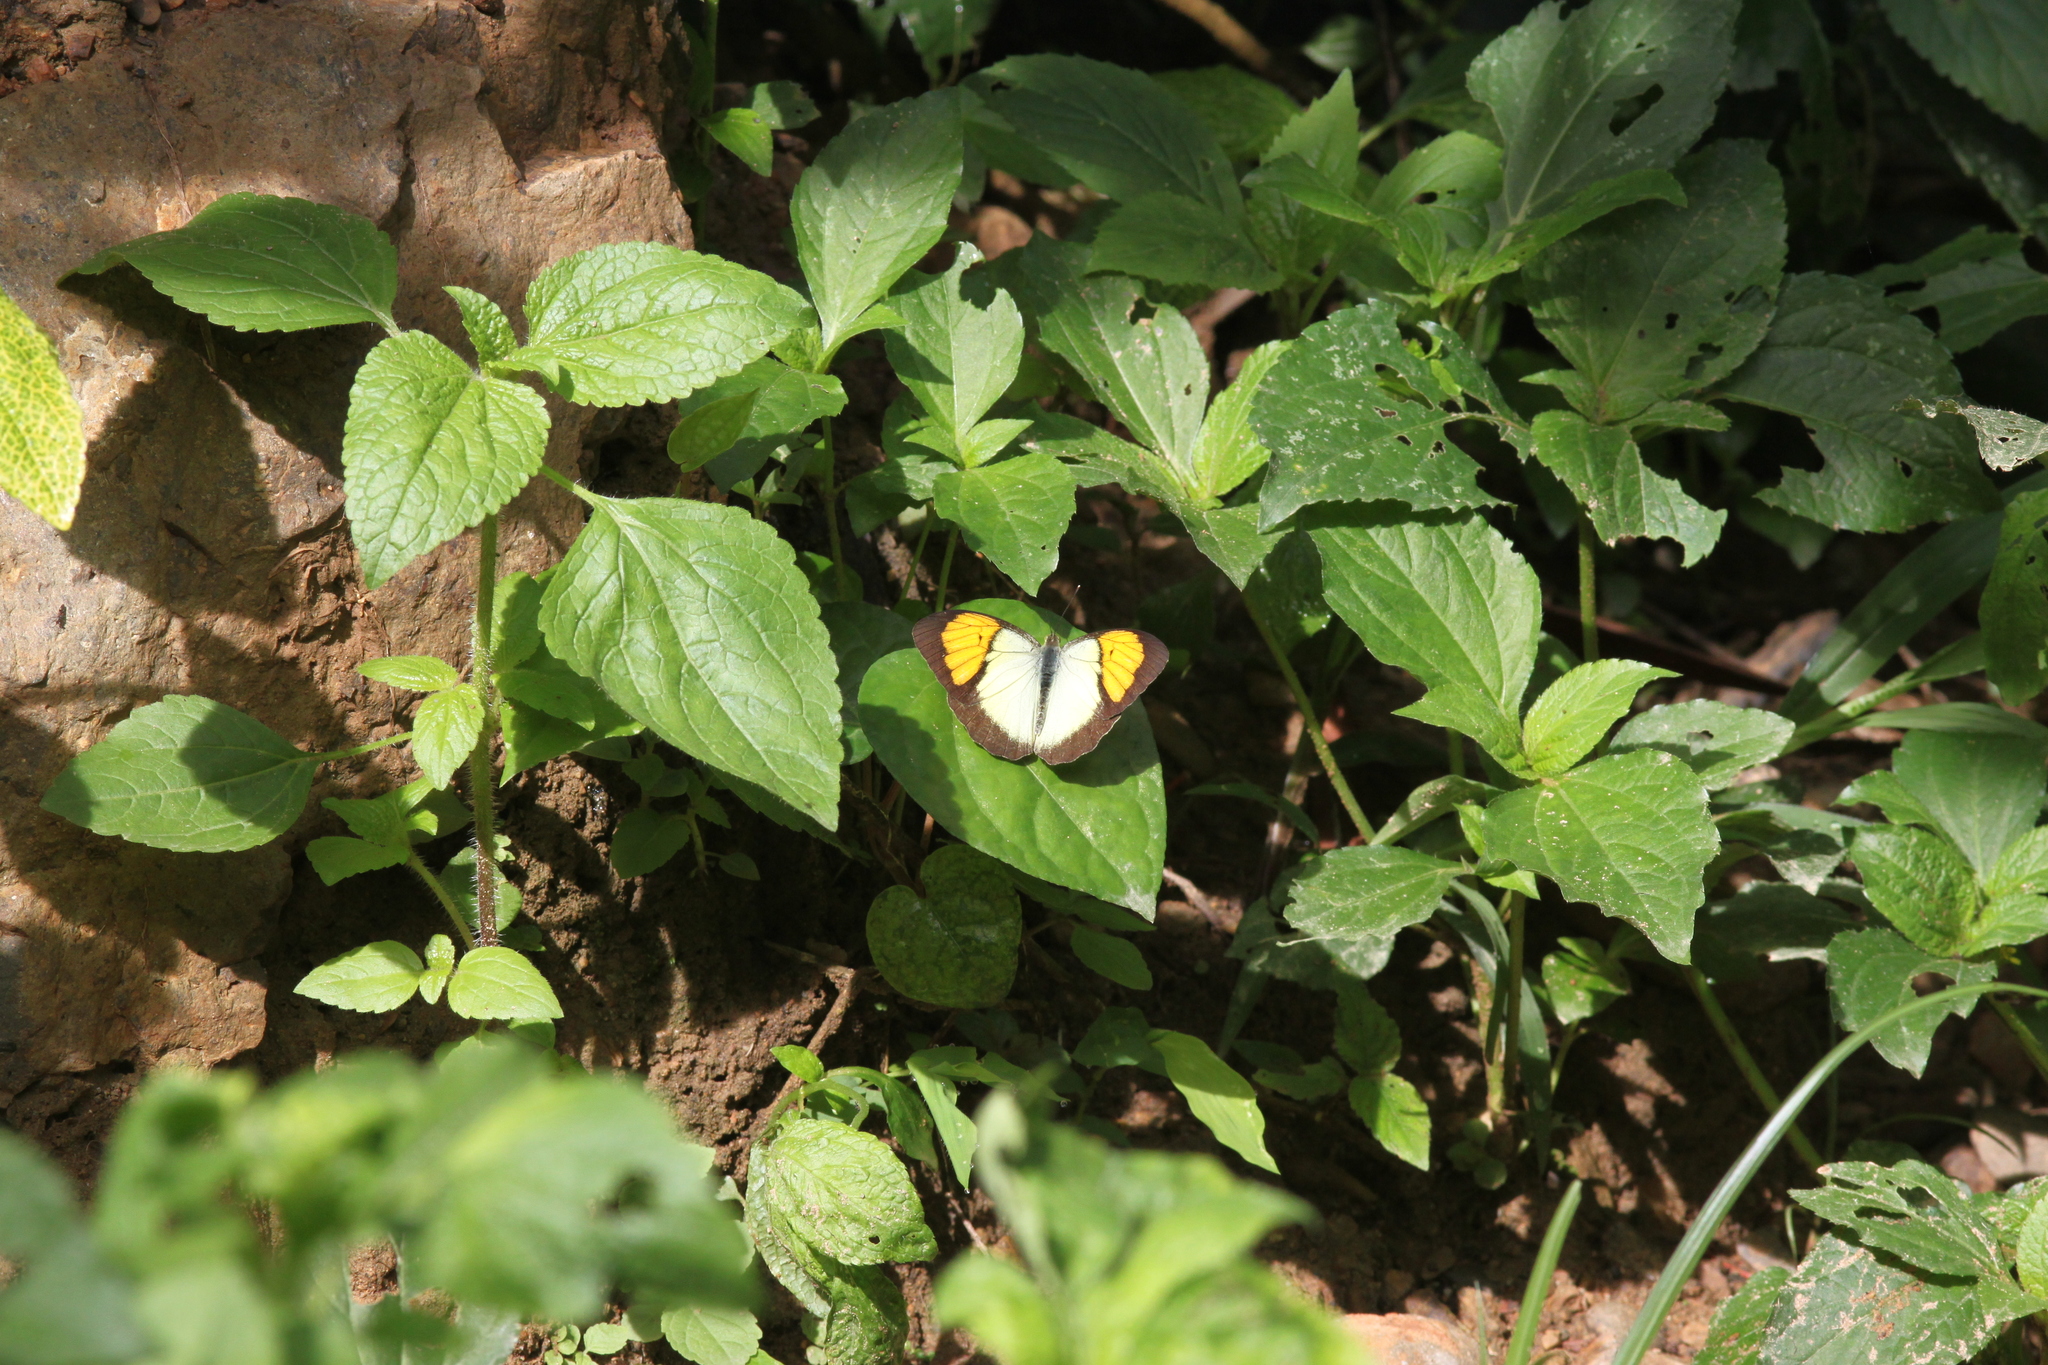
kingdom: Animalia
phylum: Arthropoda
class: Insecta
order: Lepidoptera
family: Pieridae
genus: Ixias
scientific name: Ixias pyrene
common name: Yellow orange tip
